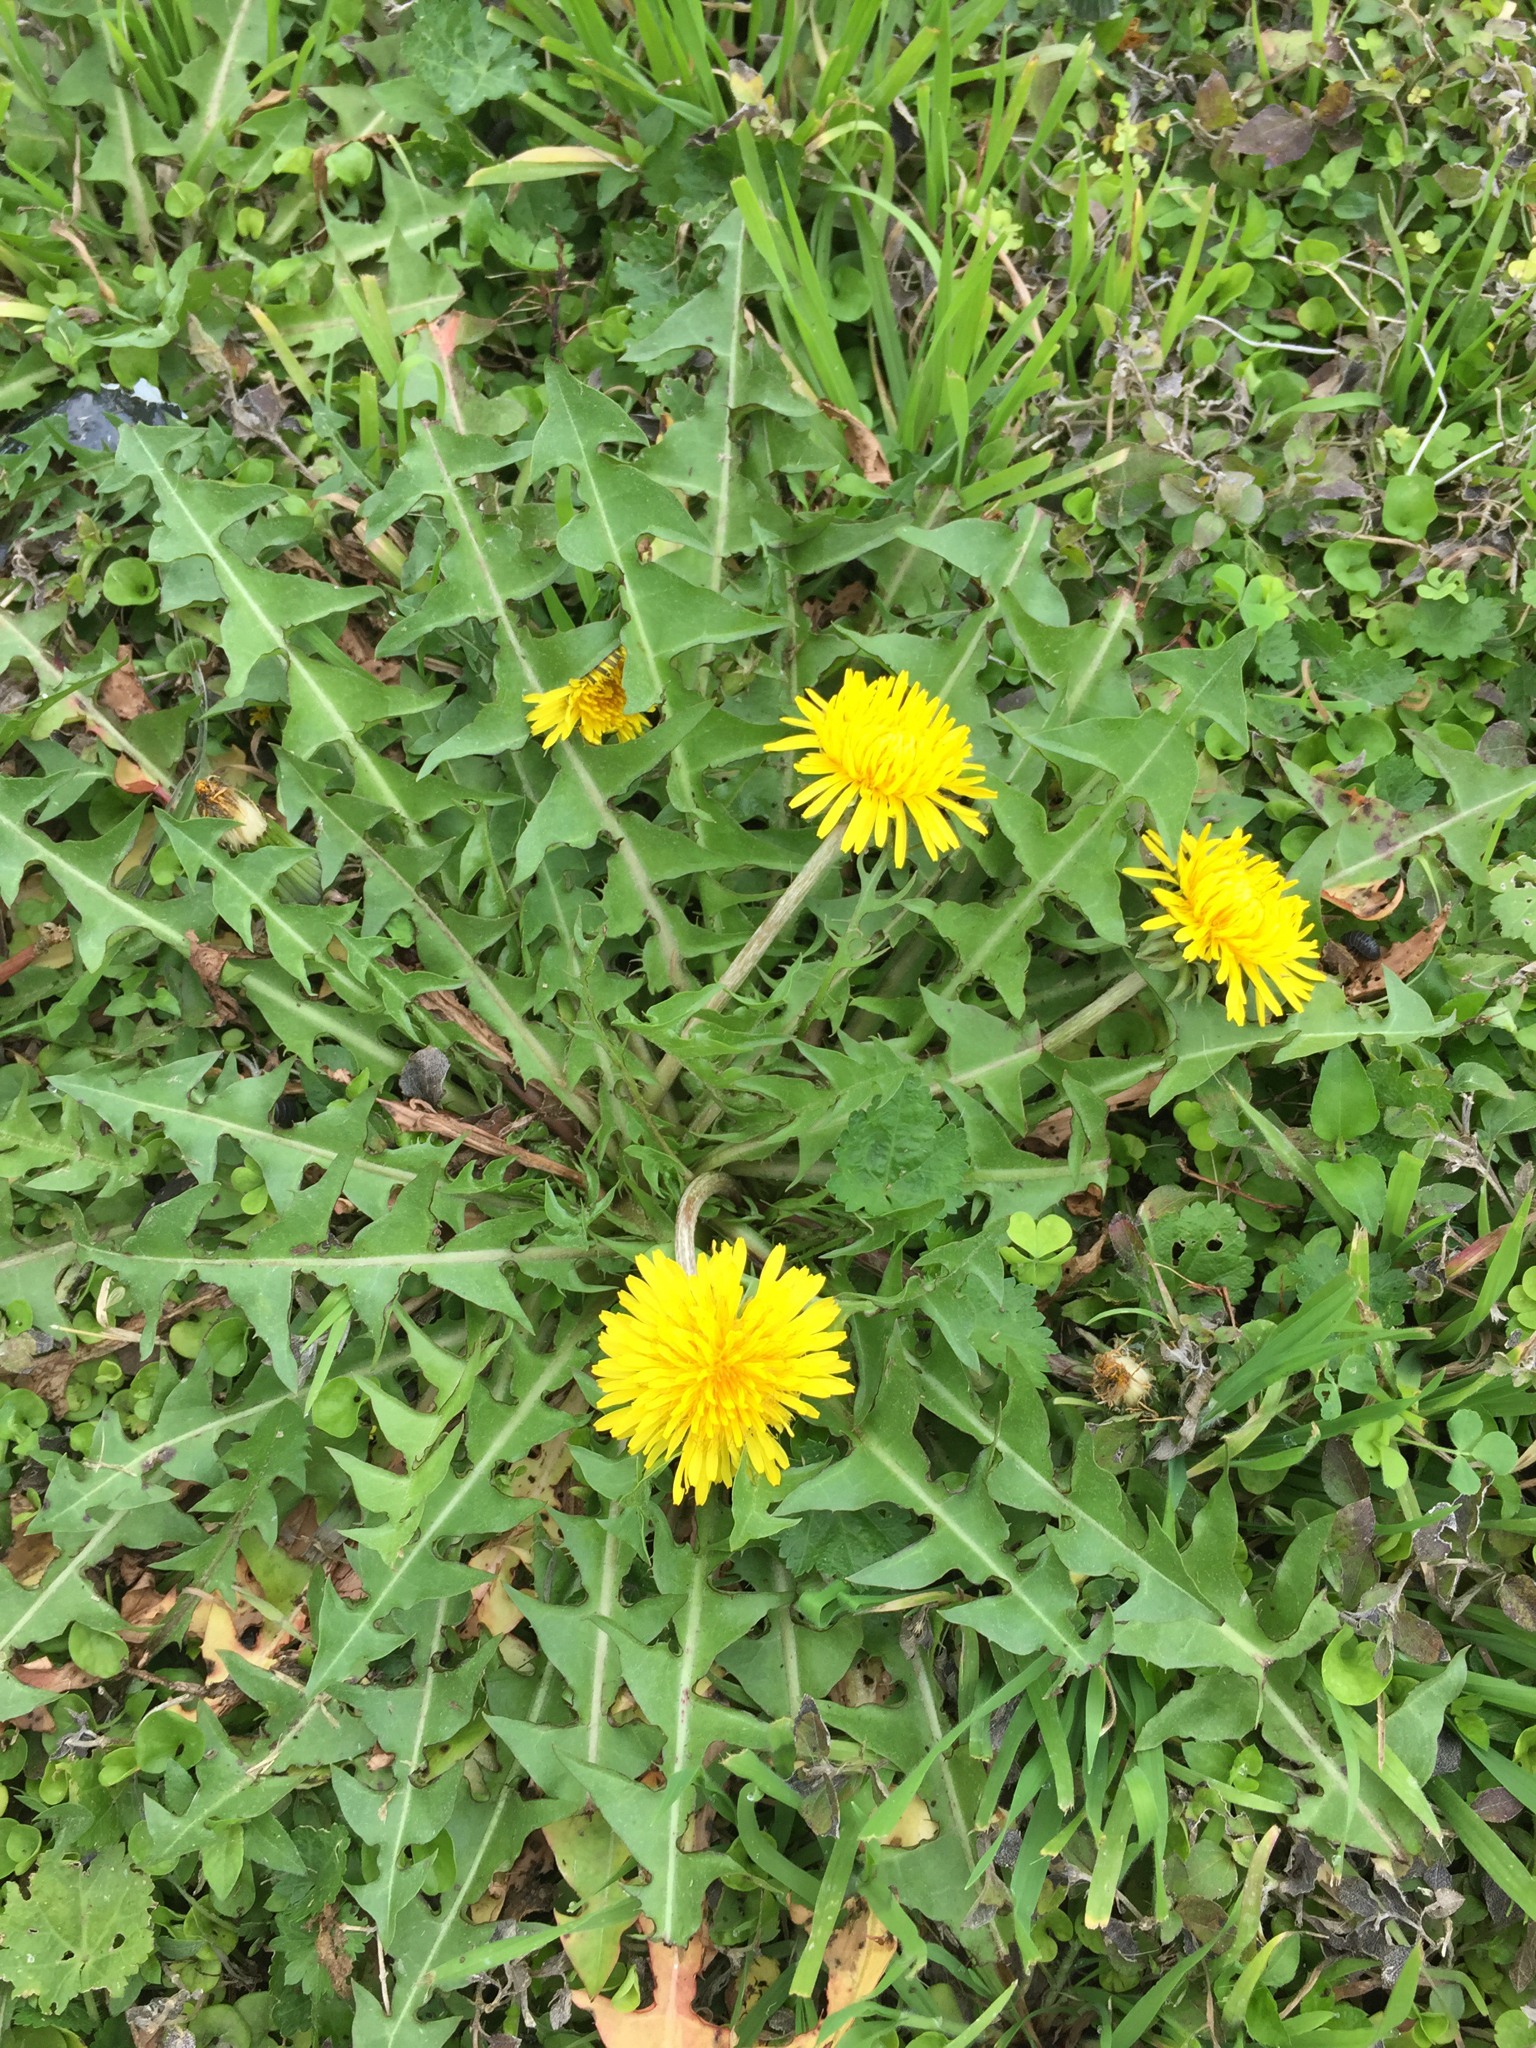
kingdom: Plantae
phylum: Tracheophyta
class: Magnoliopsida
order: Asterales
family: Asteraceae
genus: Taraxacum
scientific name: Taraxacum officinale
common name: Common dandelion
